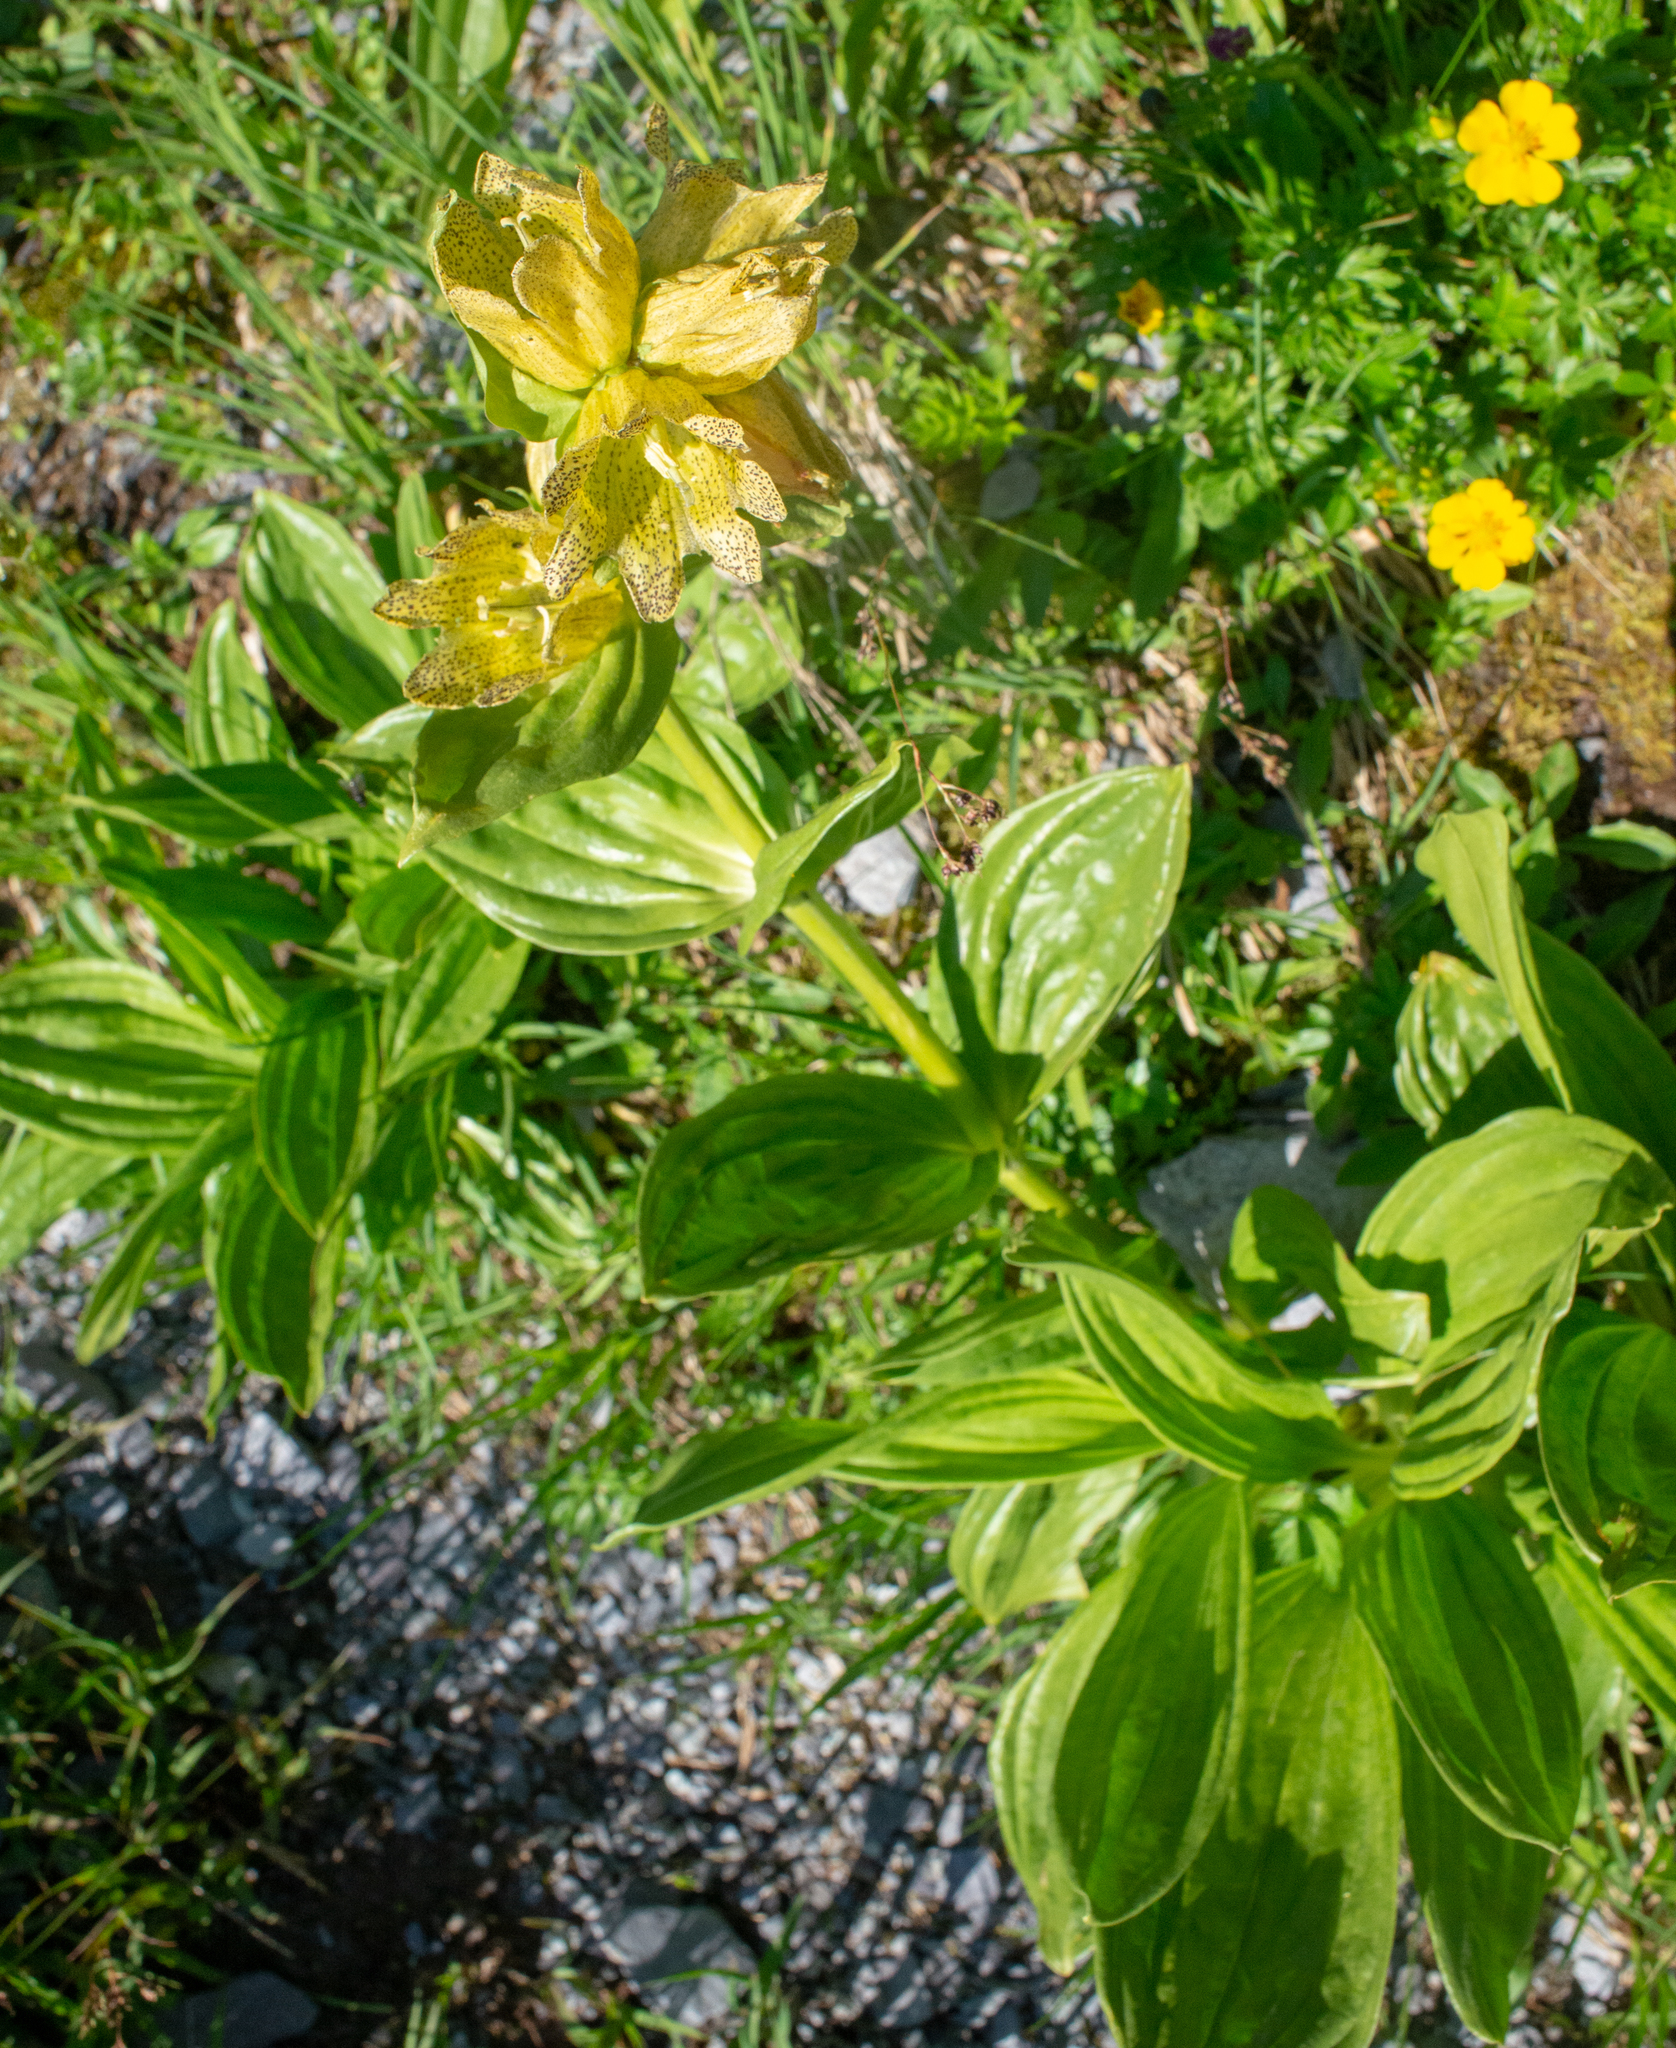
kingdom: Plantae
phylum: Tracheophyta
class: Magnoliopsida
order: Gentianales
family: Gentianaceae
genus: Gentiana
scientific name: Gentiana punctata
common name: Spotted gentian
